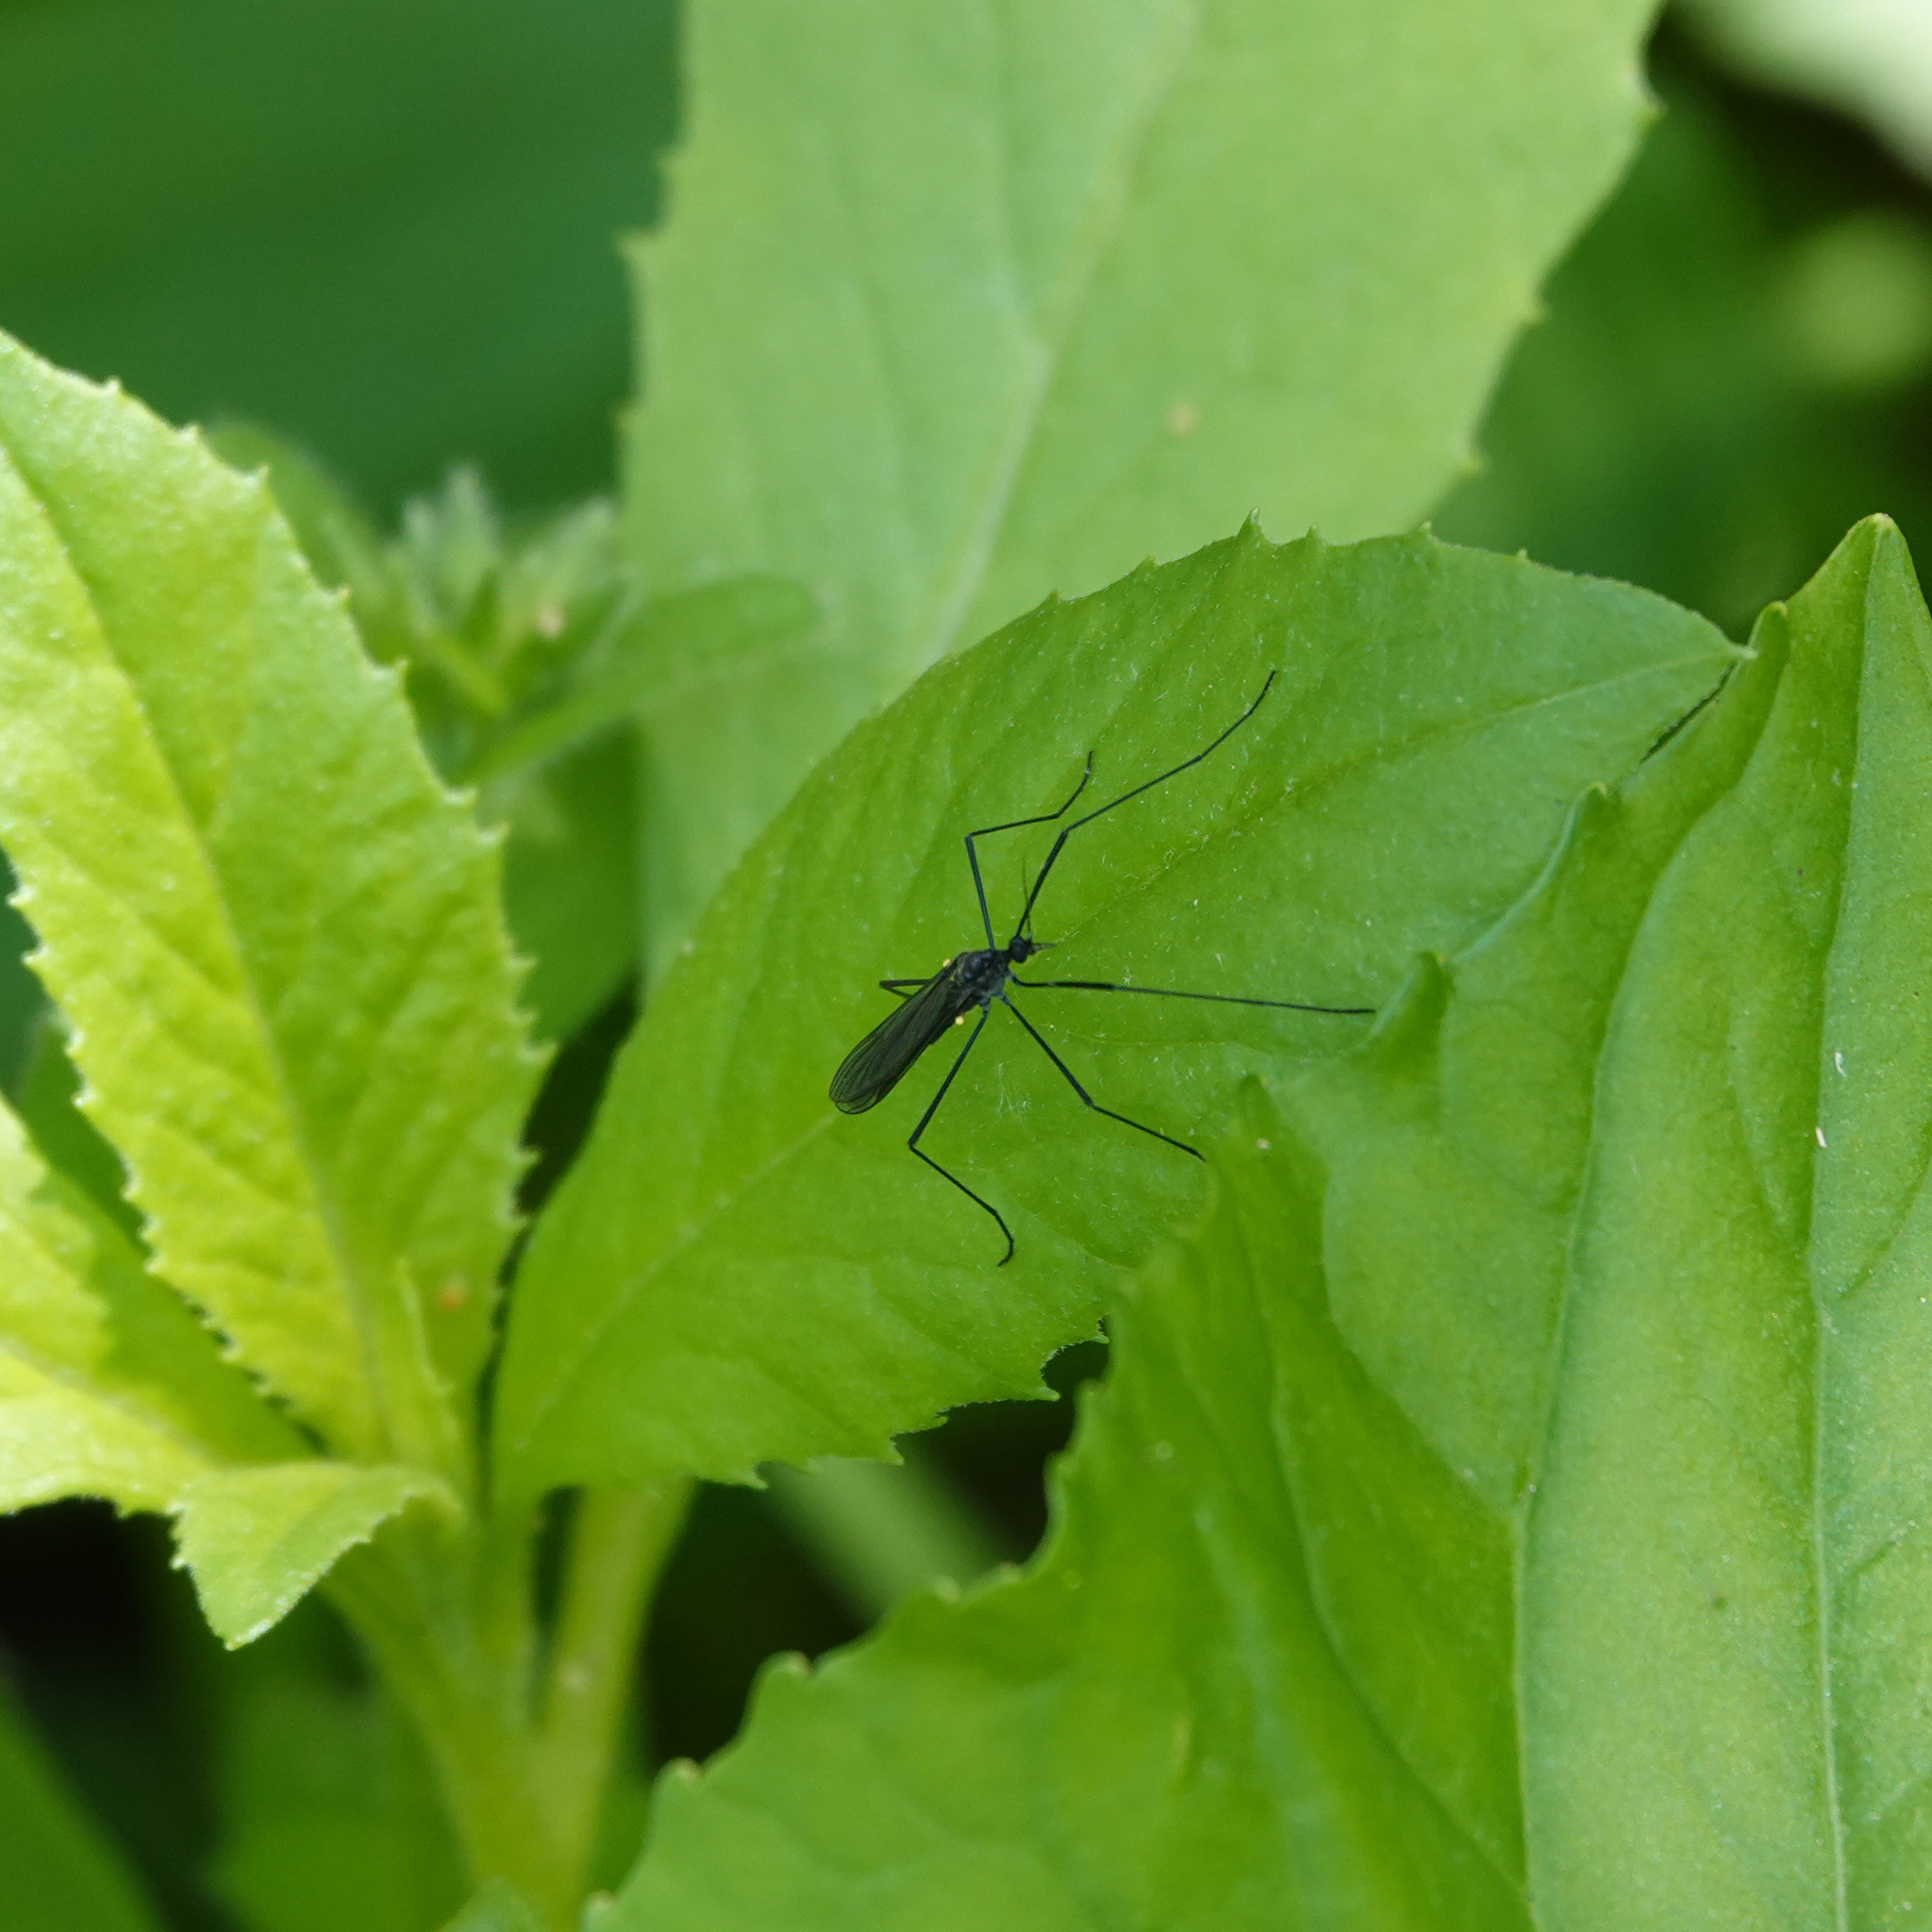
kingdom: Animalia
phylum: Arthropoda
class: Insecta
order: Diptera
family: Limoniidae
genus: Gnophomyia
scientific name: Gnophomyia tristissima
